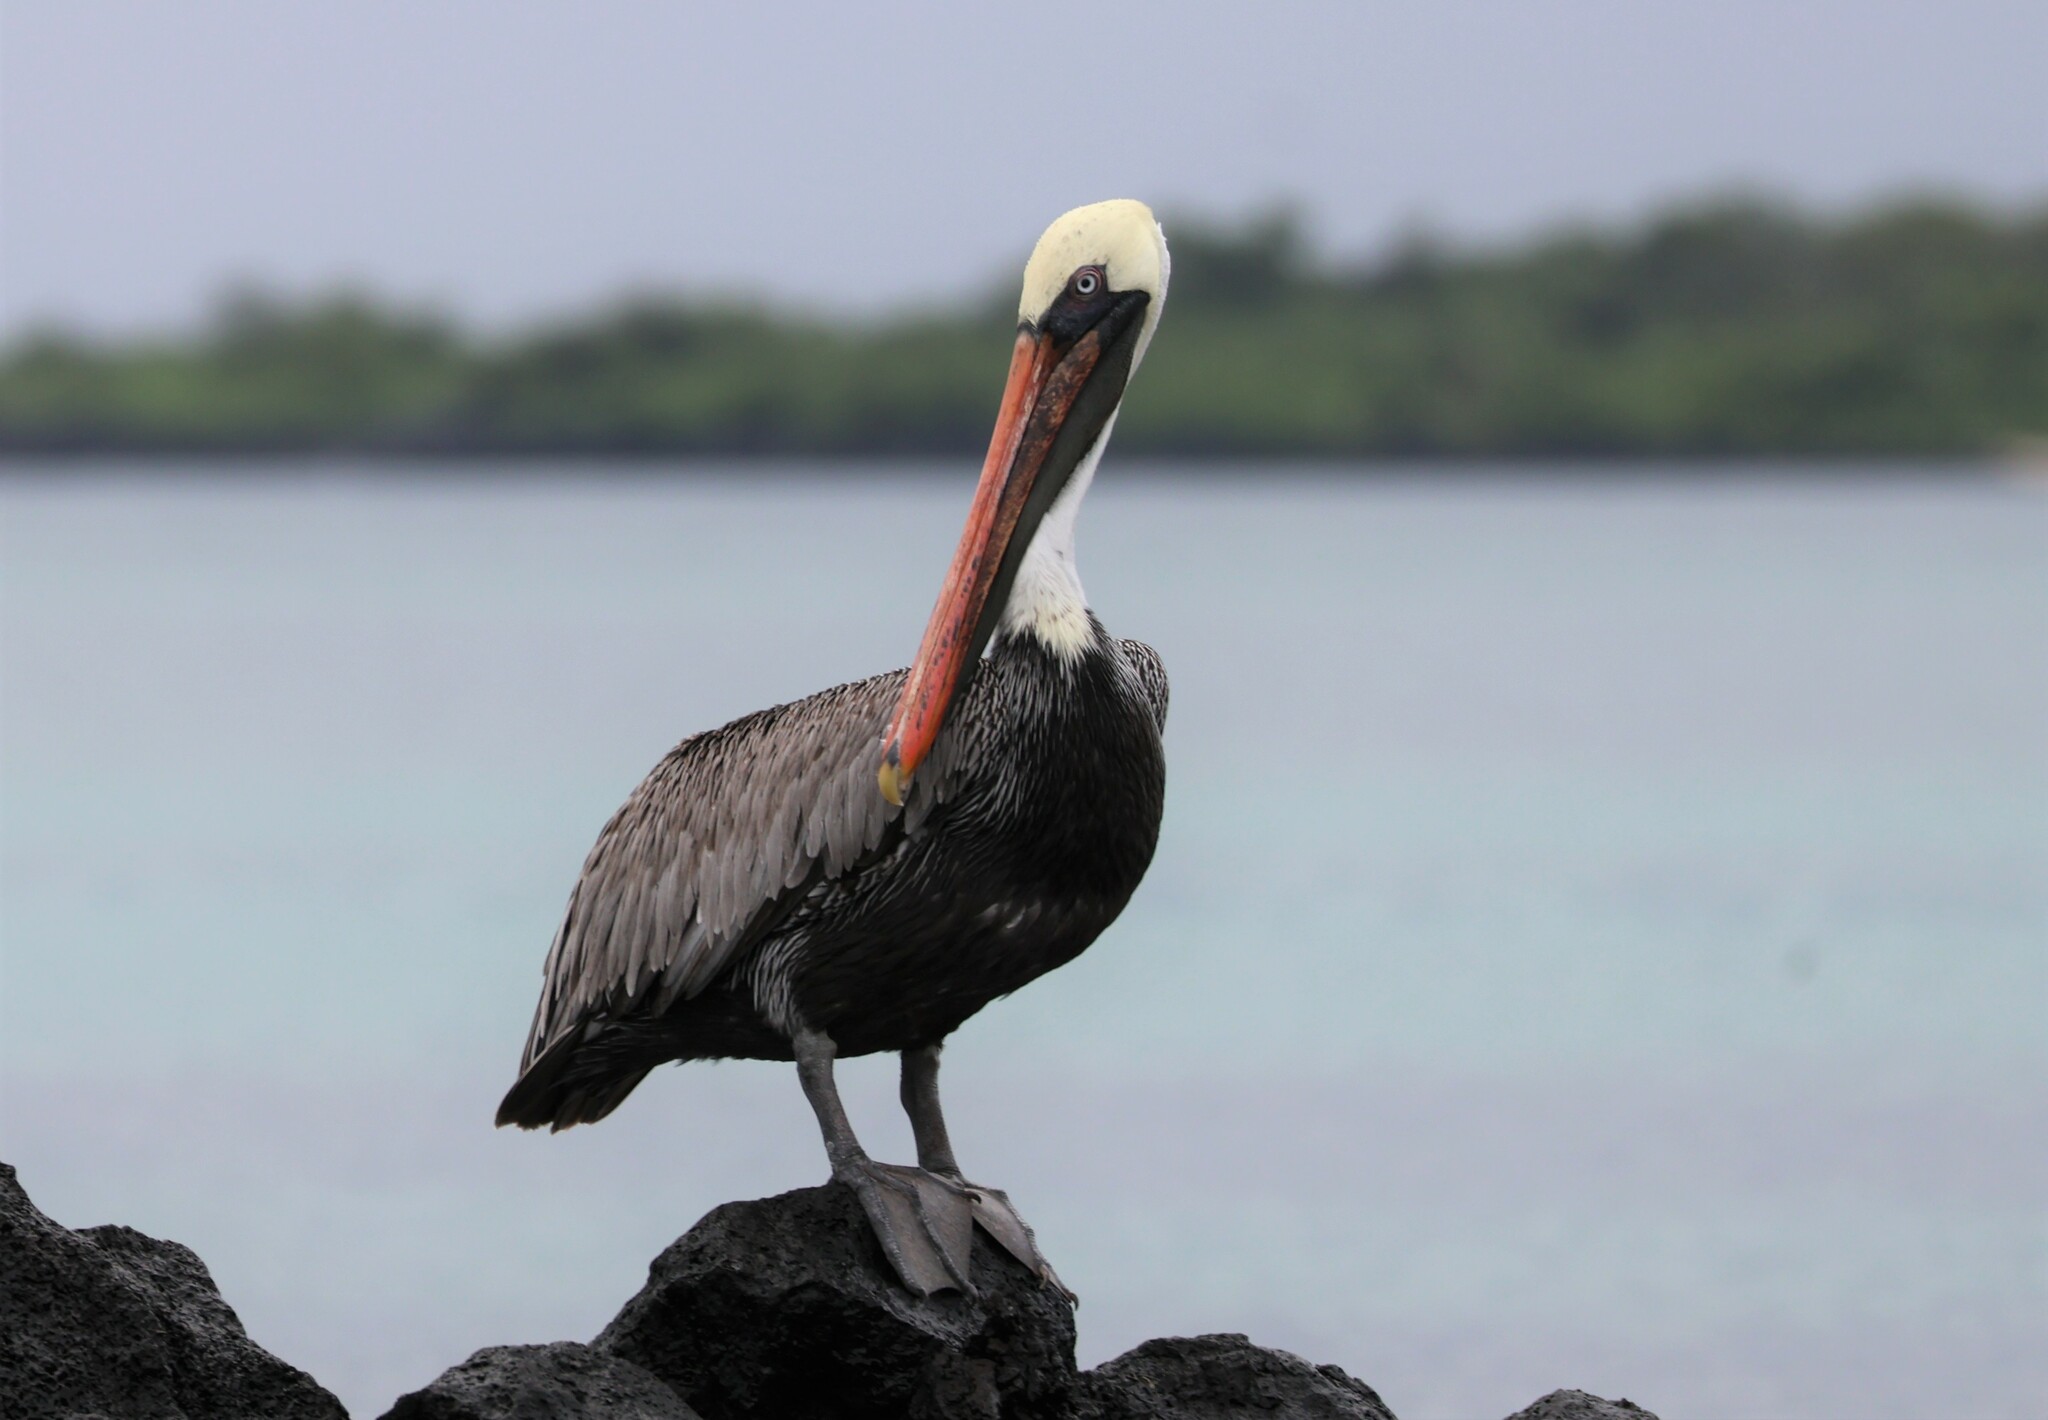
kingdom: Animalia
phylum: Chordata
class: Aves
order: Pelecaniformes
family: Pelecanidae
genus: Pelecanus
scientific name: Pelecanus occidentalis
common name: Brown pelican
